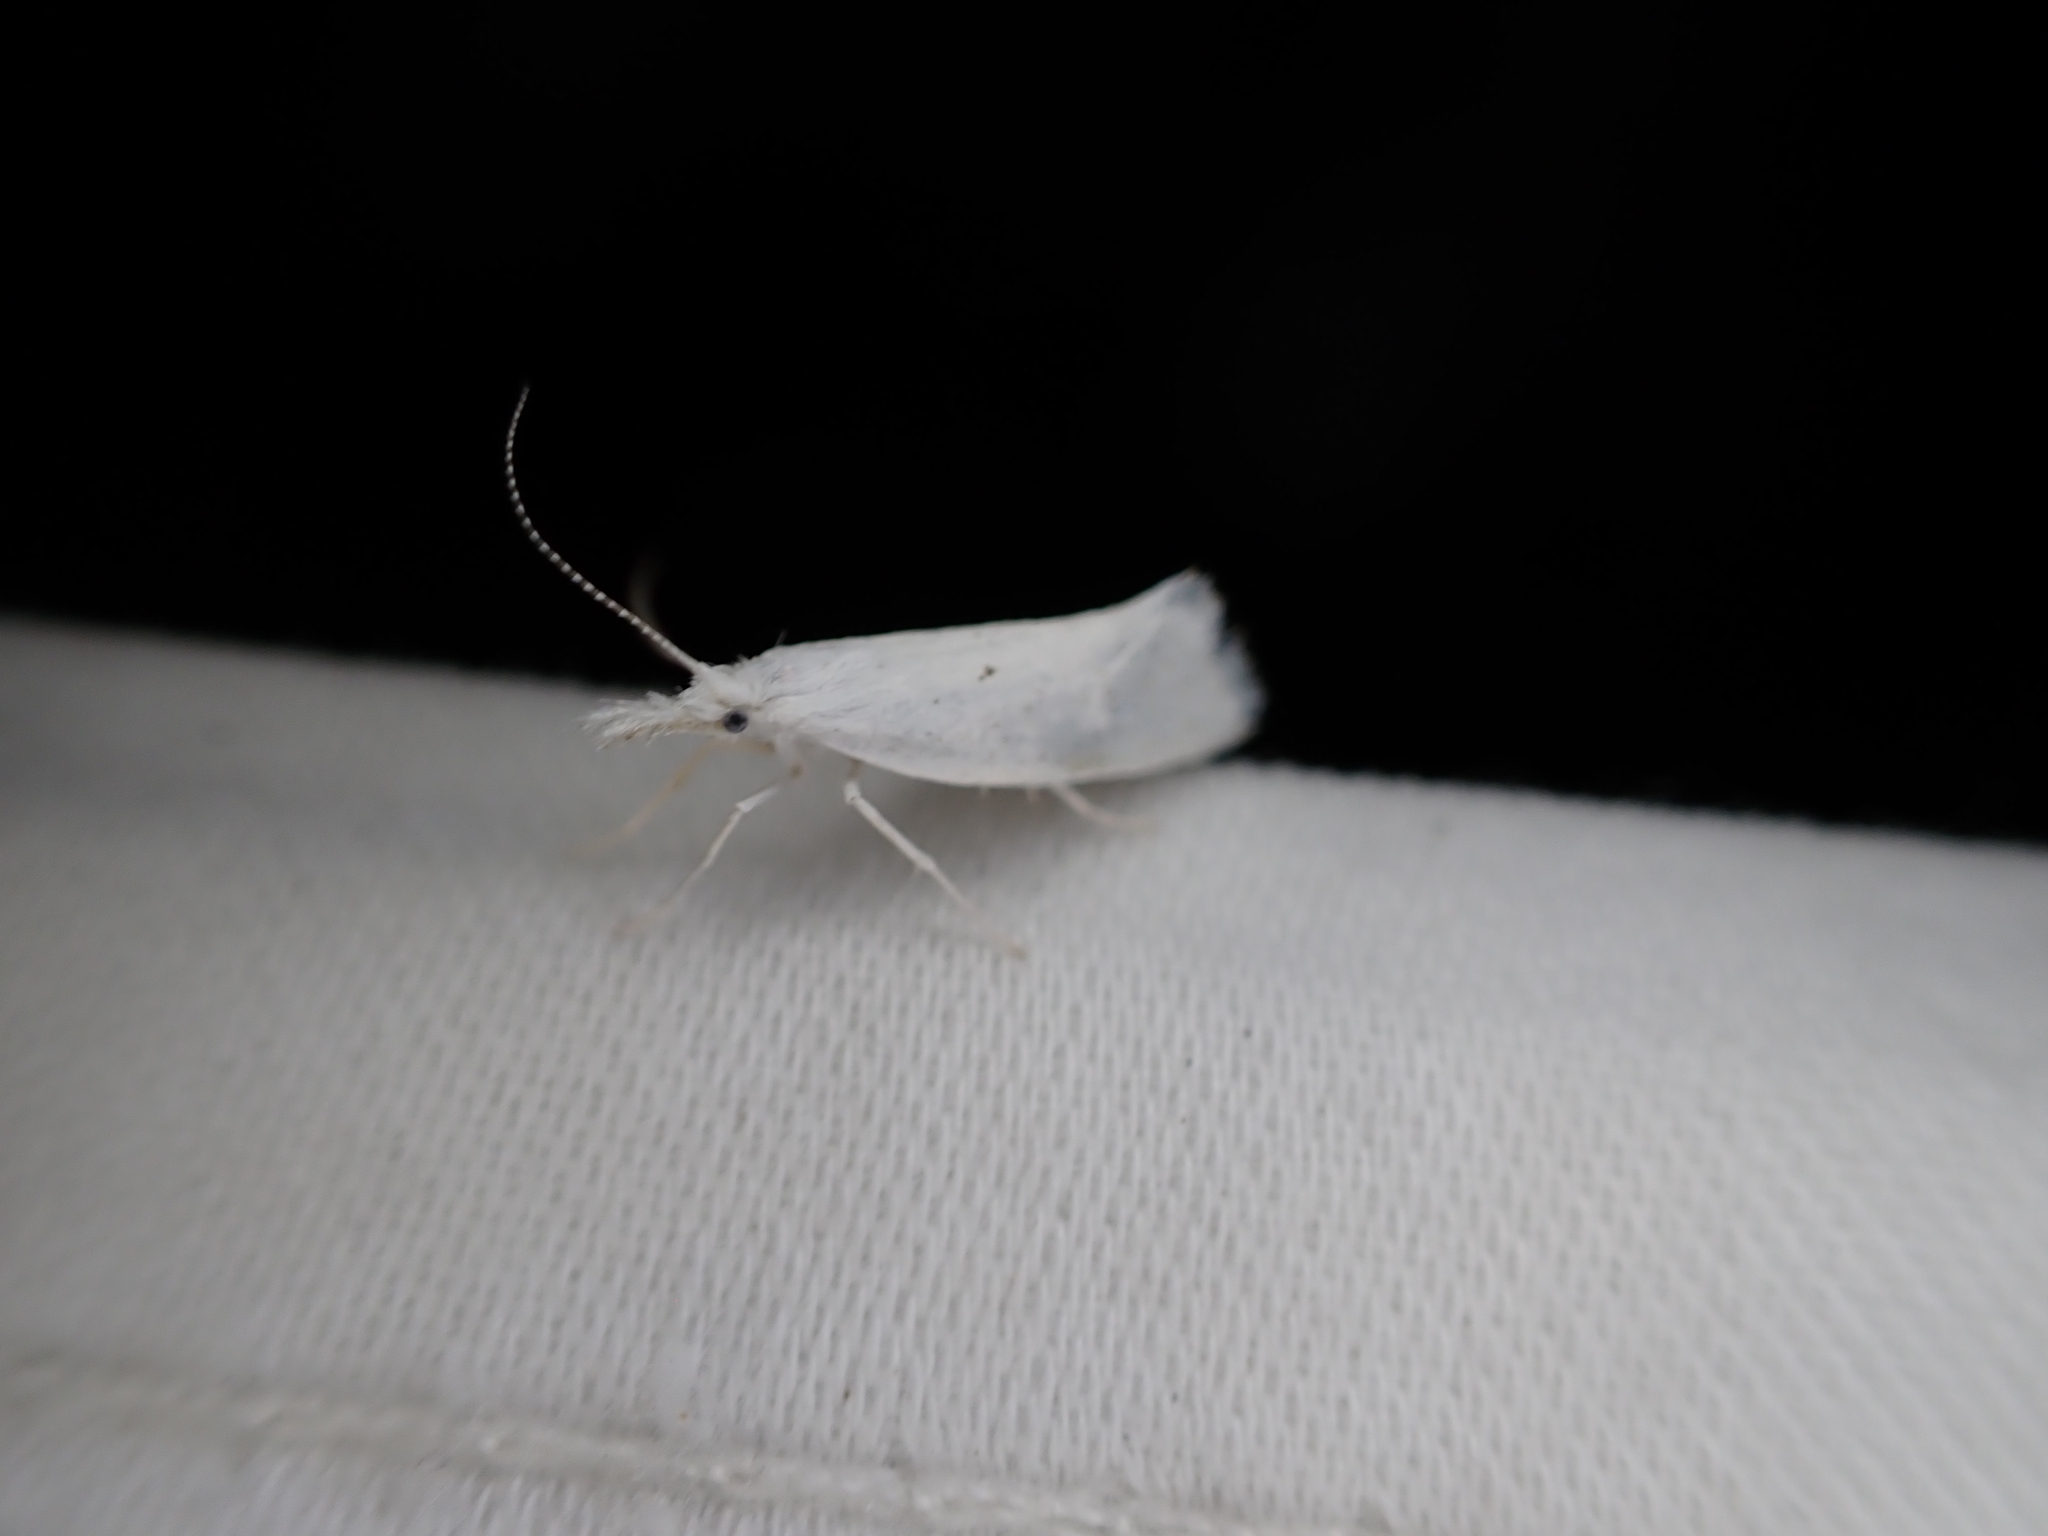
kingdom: Animalia
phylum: Arthropoda
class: Insecta
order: Lepidoptera
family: Ypsolophidae
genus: Euceratia
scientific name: Euceratia castella
